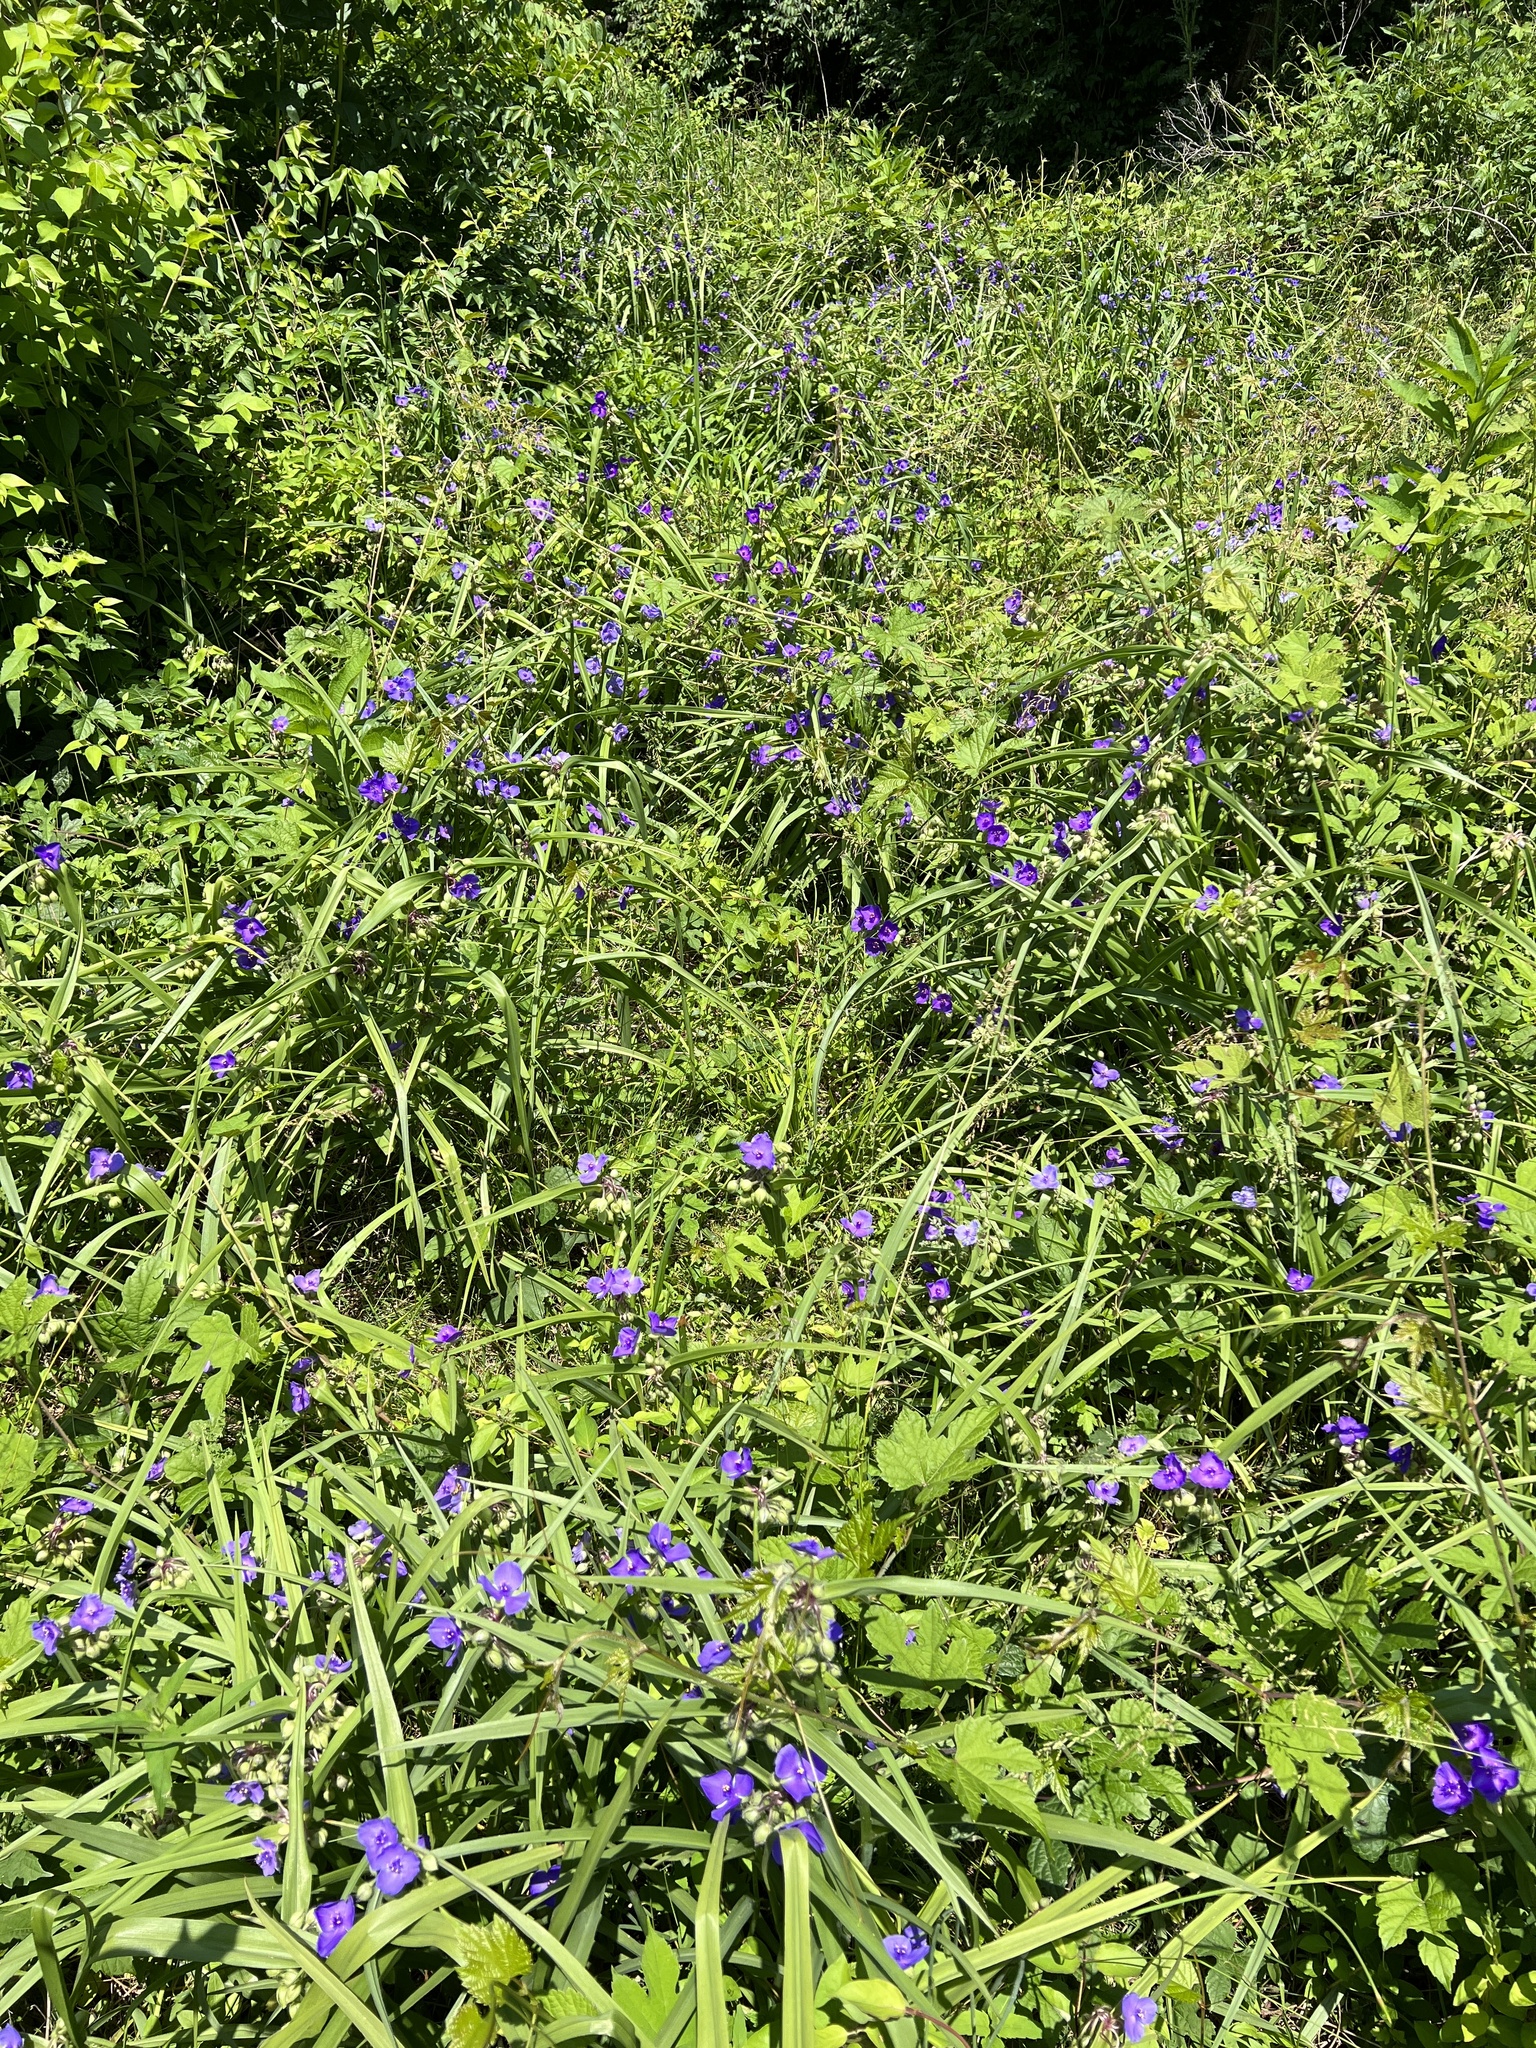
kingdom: Plantae
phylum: Tracheophyta
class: Liliopsida
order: Commelinales
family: Commelinaceae
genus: Tradescantia
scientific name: Tradescantia virginiana
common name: Spiderwort
